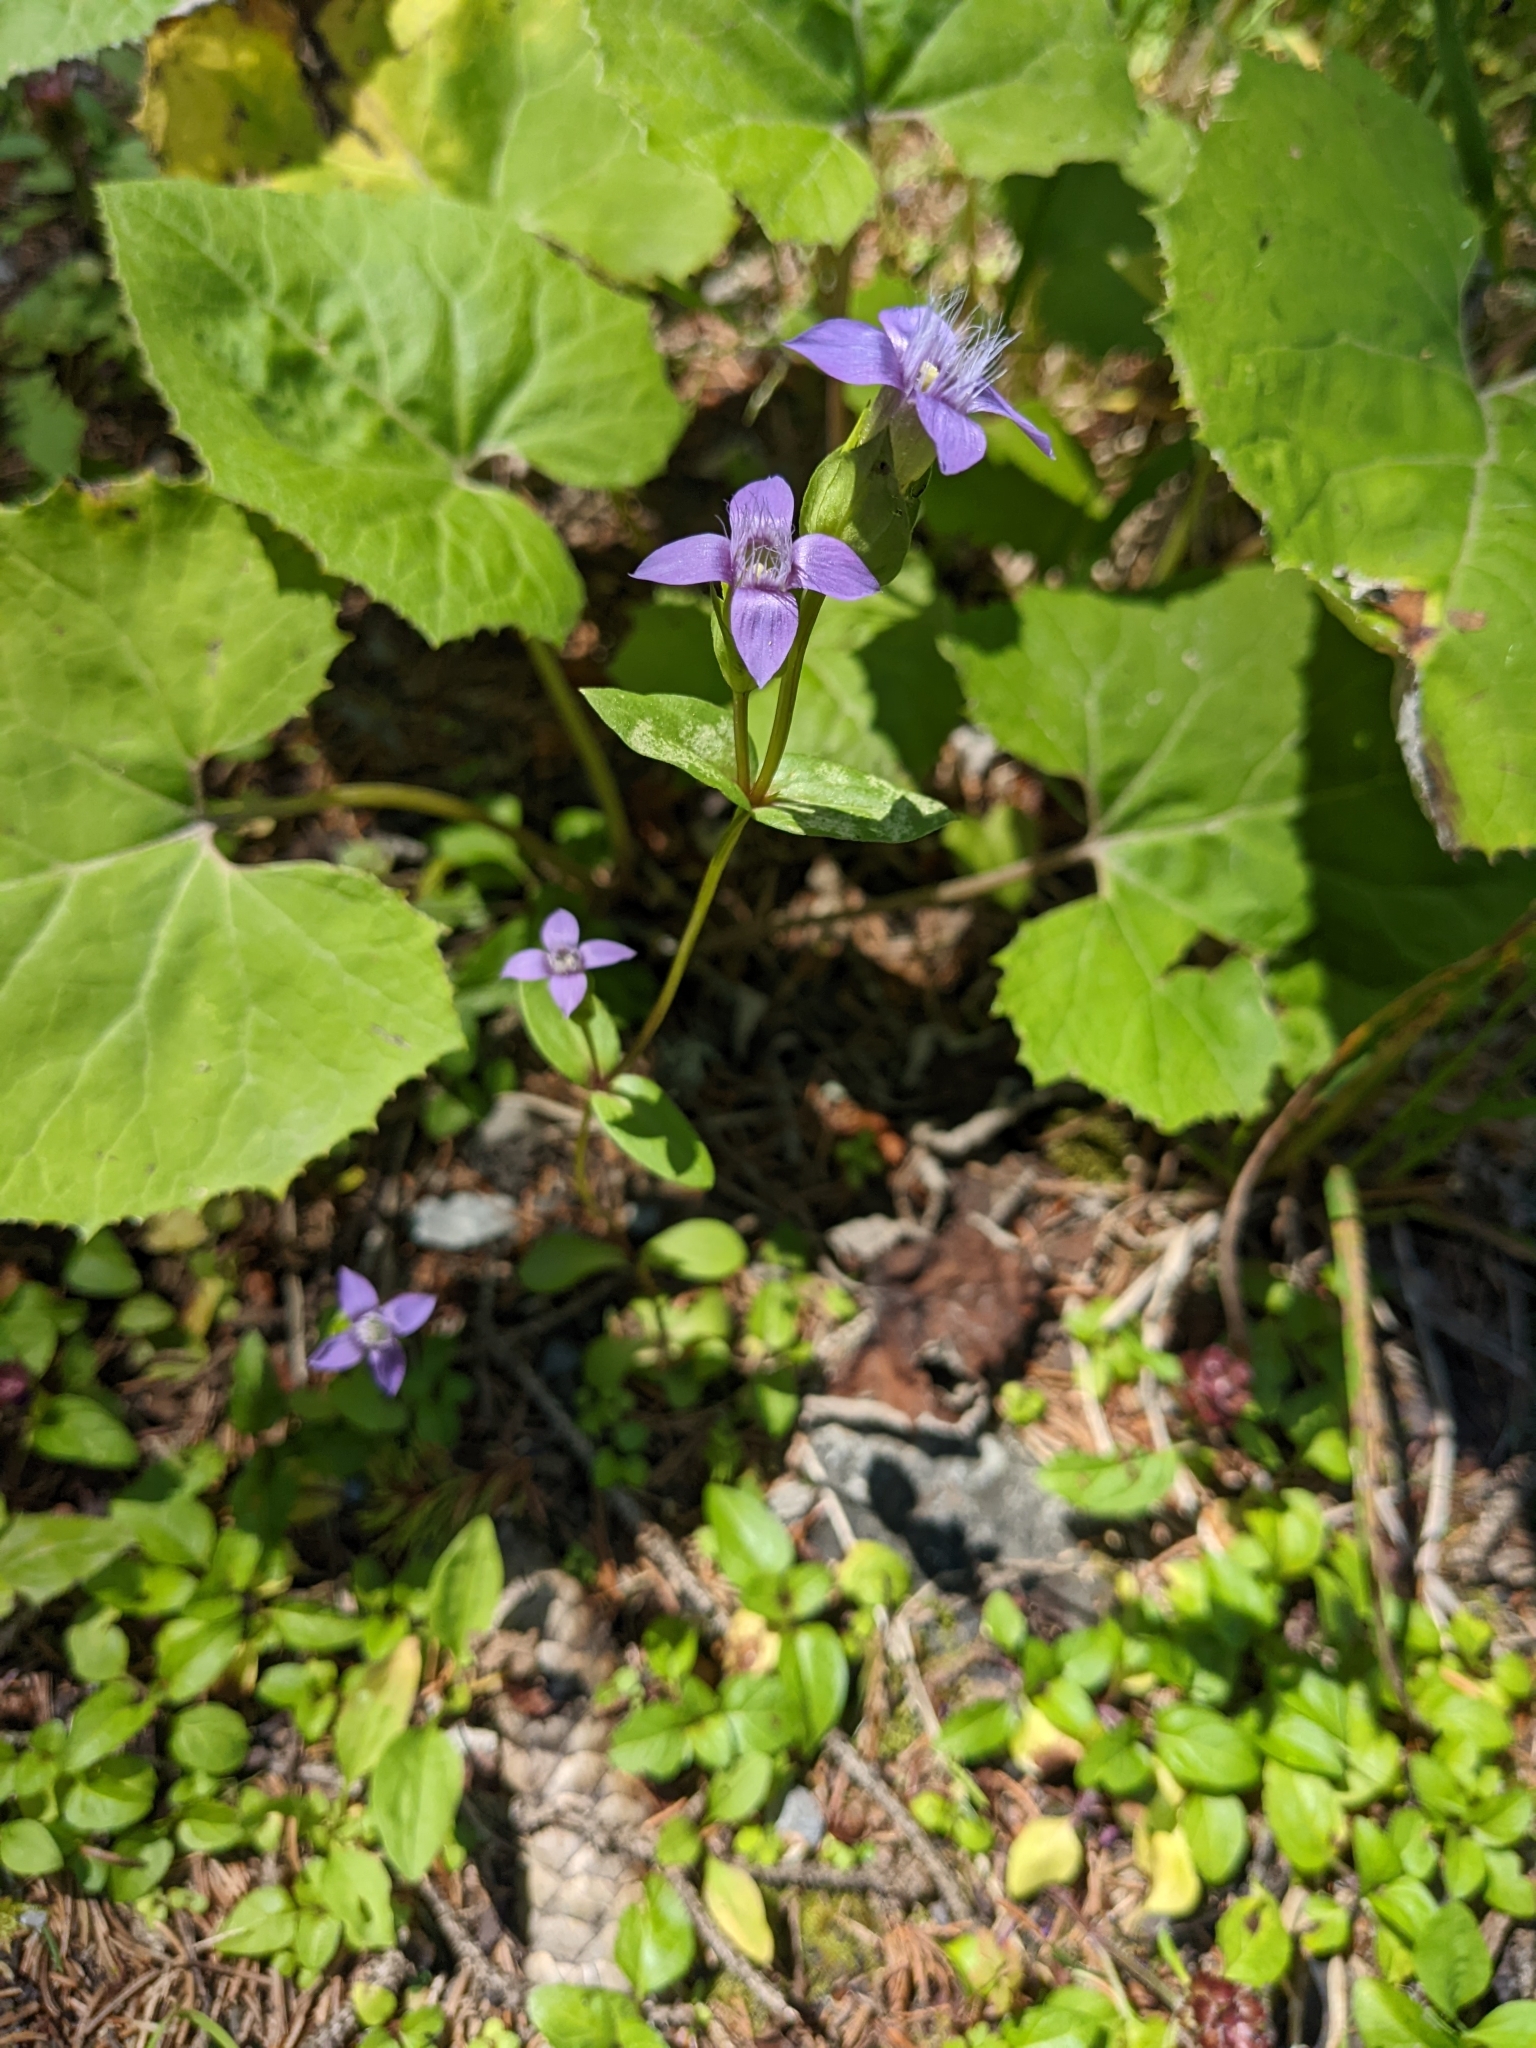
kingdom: Plantae
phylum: Tracheophyta
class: Magnoliopsida
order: Gentianales
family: Gentianaceae
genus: Gentianella
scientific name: Gentianella campestris
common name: Field gentian
